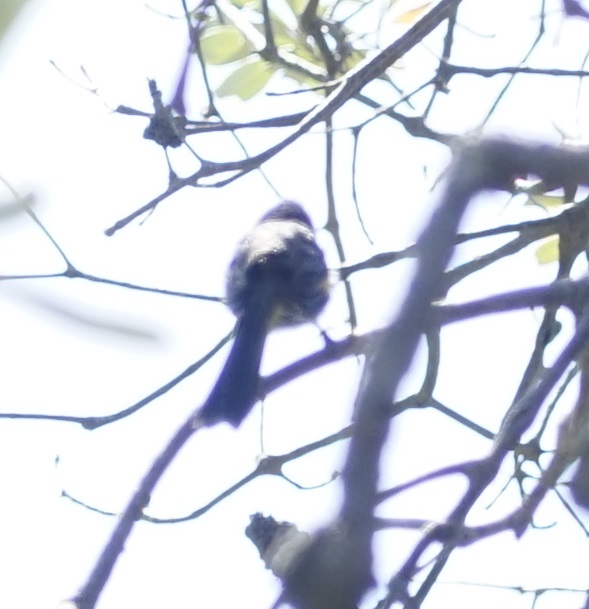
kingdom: Animalia
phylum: Chordata
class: Aves
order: Passeriformes
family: Meliphagidae
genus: Phylidonyris
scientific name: Phylidonyris novaehollandiae
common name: New holland honeyeater
